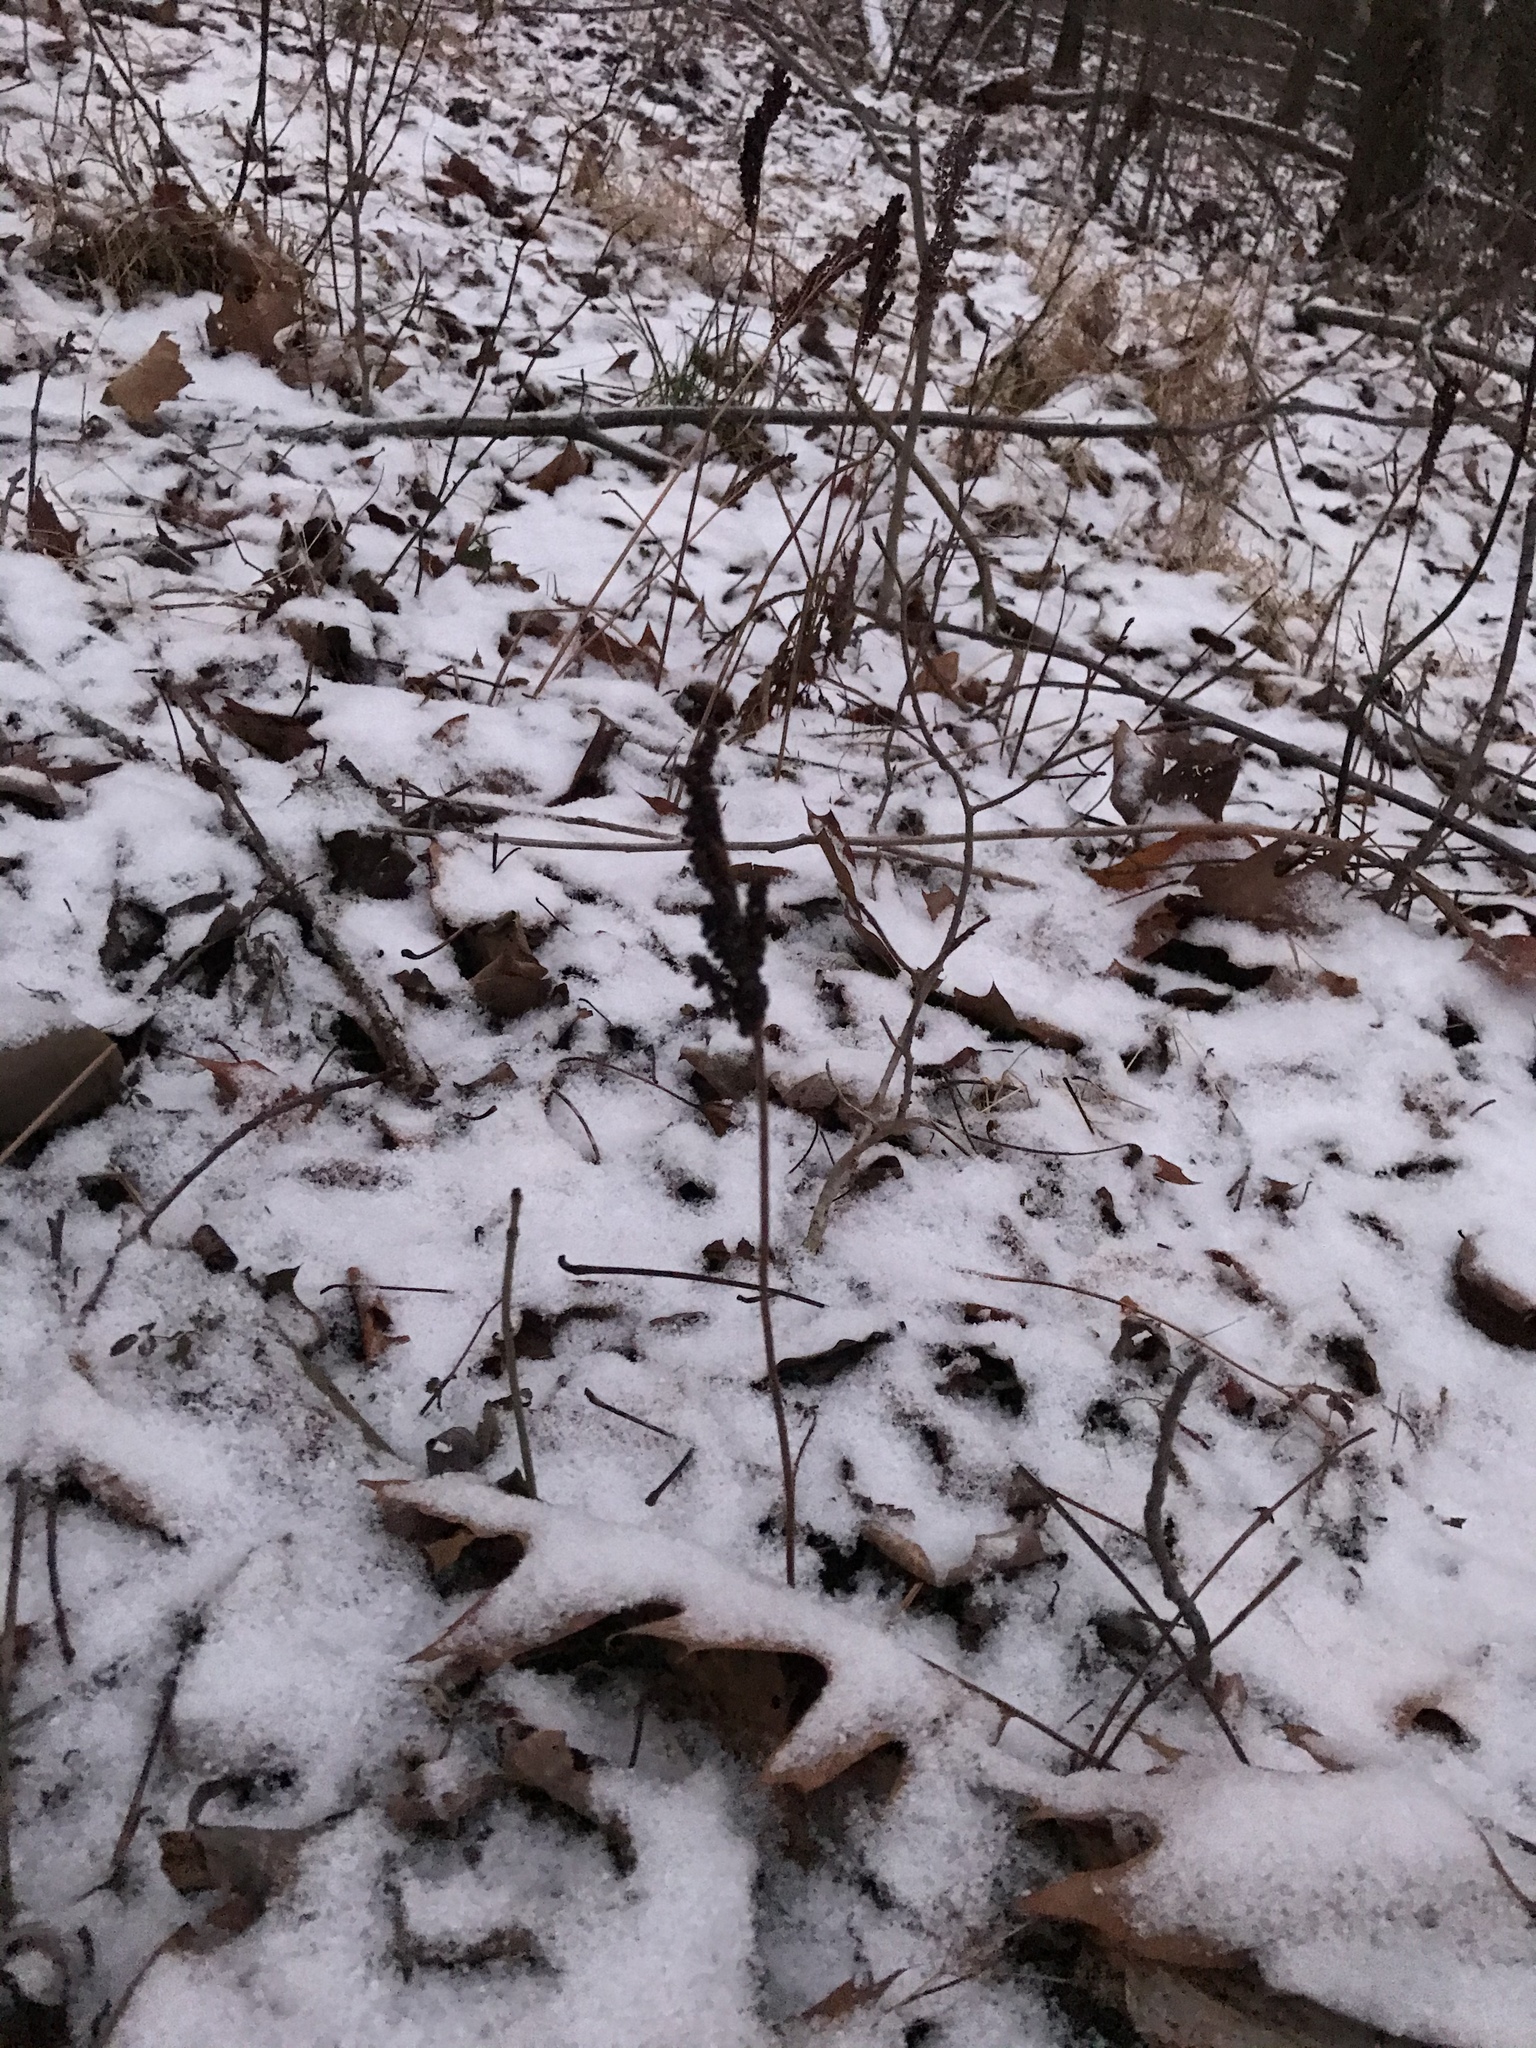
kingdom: Plantae
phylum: Tracheophyta
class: Polypodiopsida
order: Polypodiales
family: Onocleaceae
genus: Onoclea
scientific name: Onoclea sensibilis
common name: Sensitive fern
